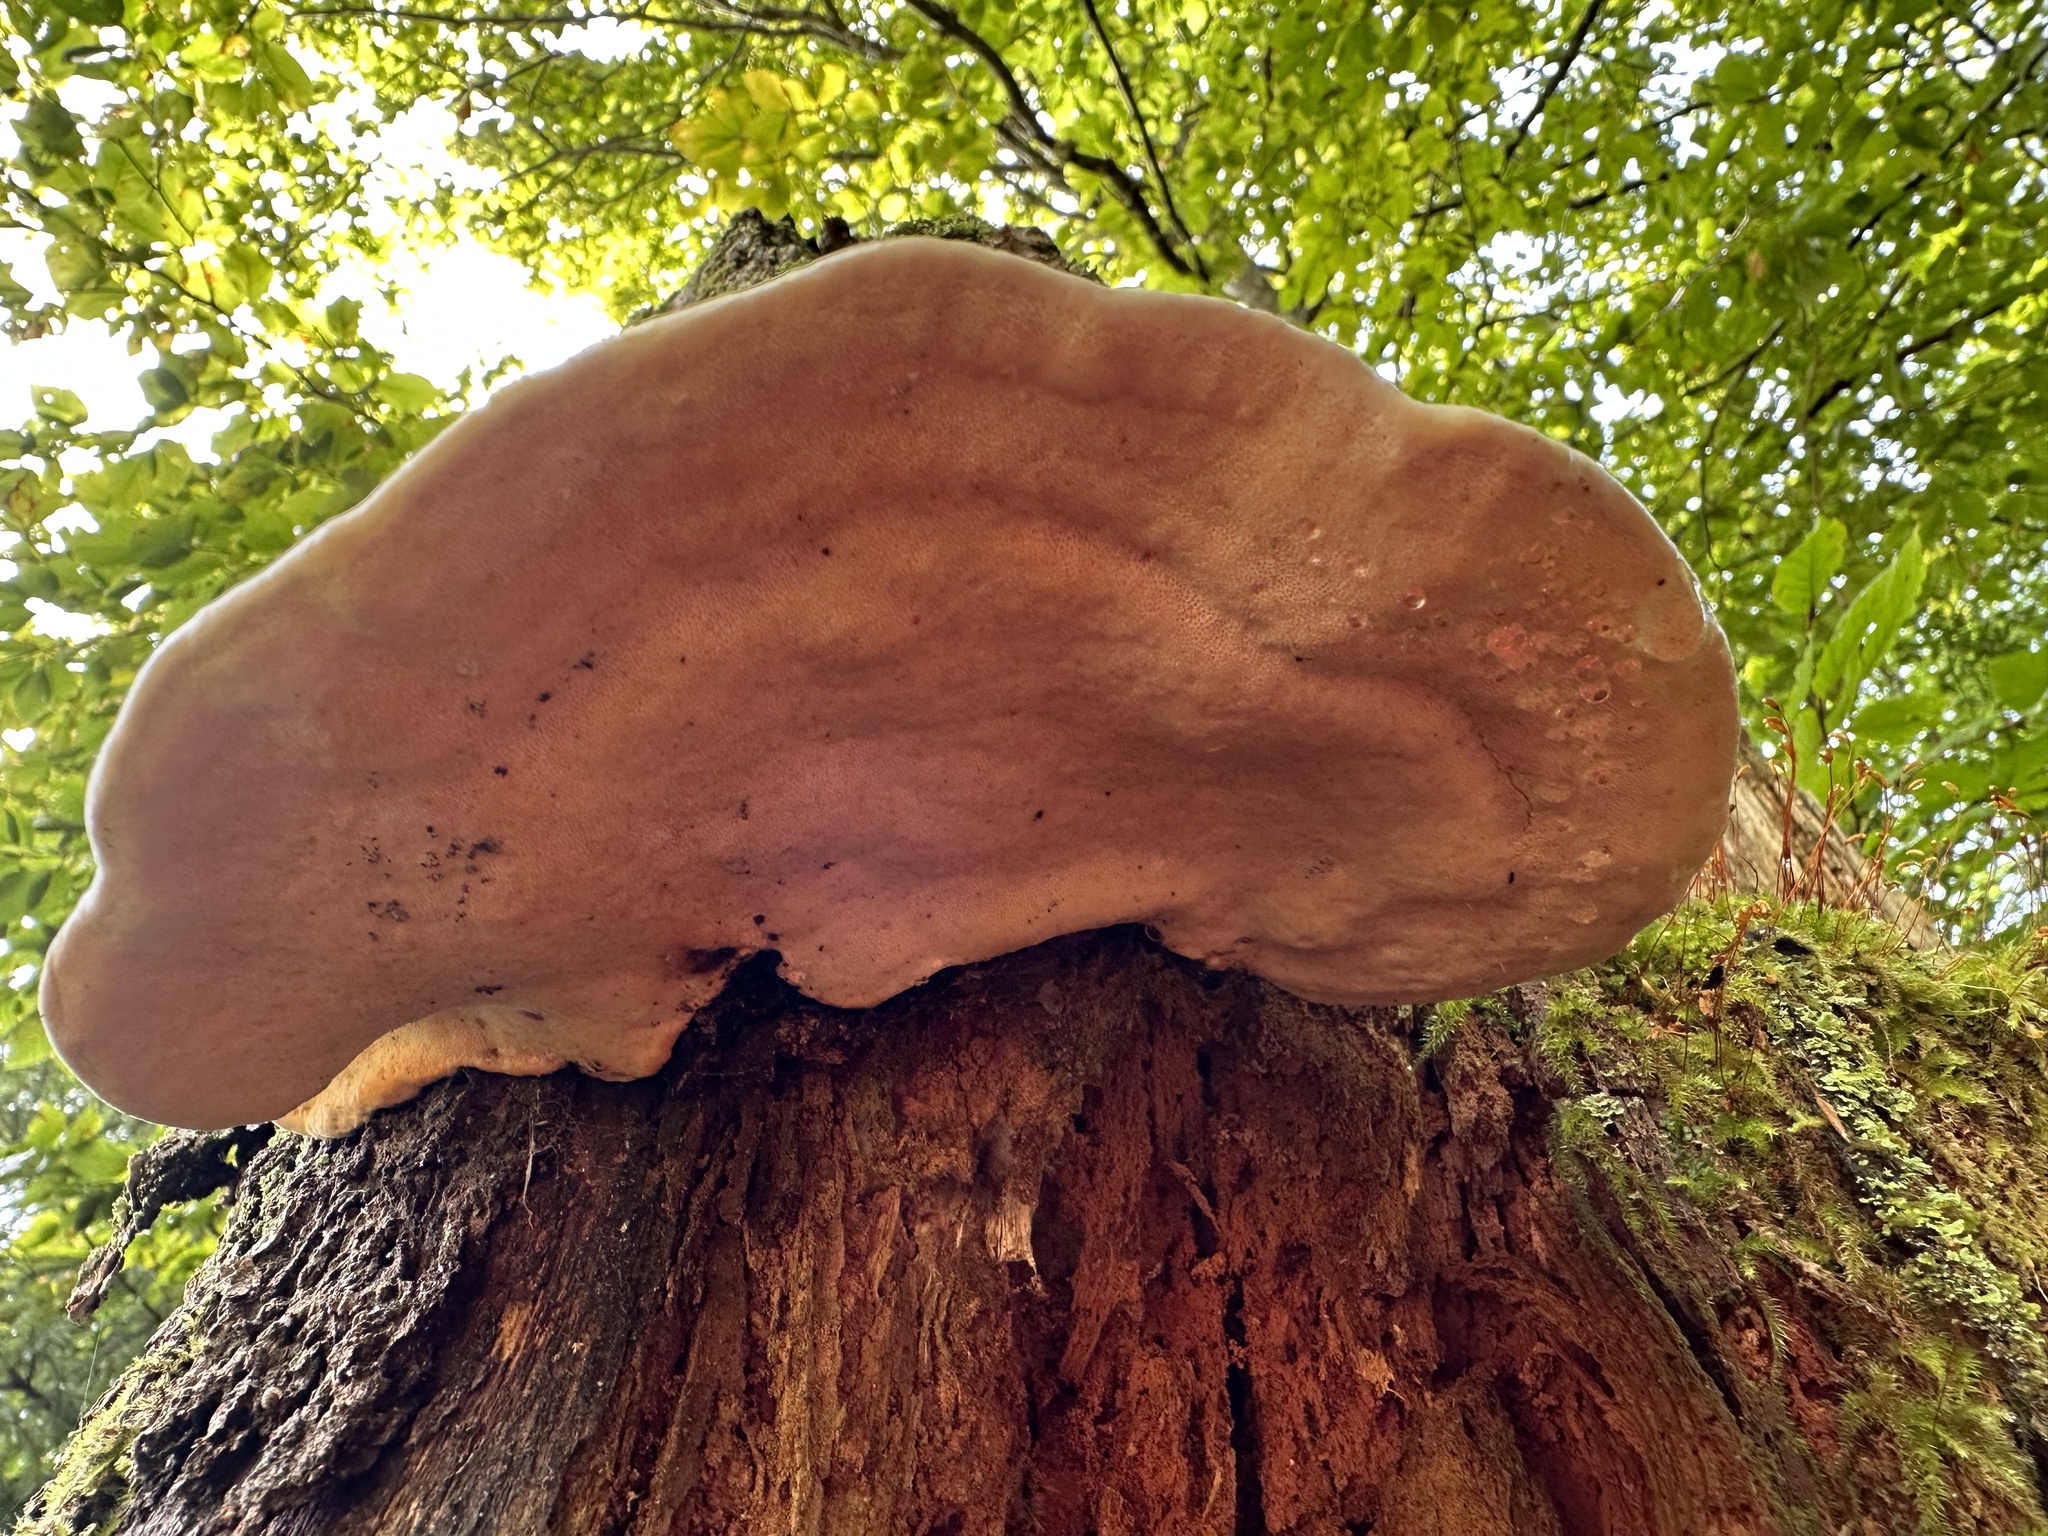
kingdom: Fungi
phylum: Basidiomycota
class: Agaricomycetes
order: Polyporales
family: Fomitopsidaceae
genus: Fomitopsis
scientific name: Fomitopsis pinicola
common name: Red-belted bracket
